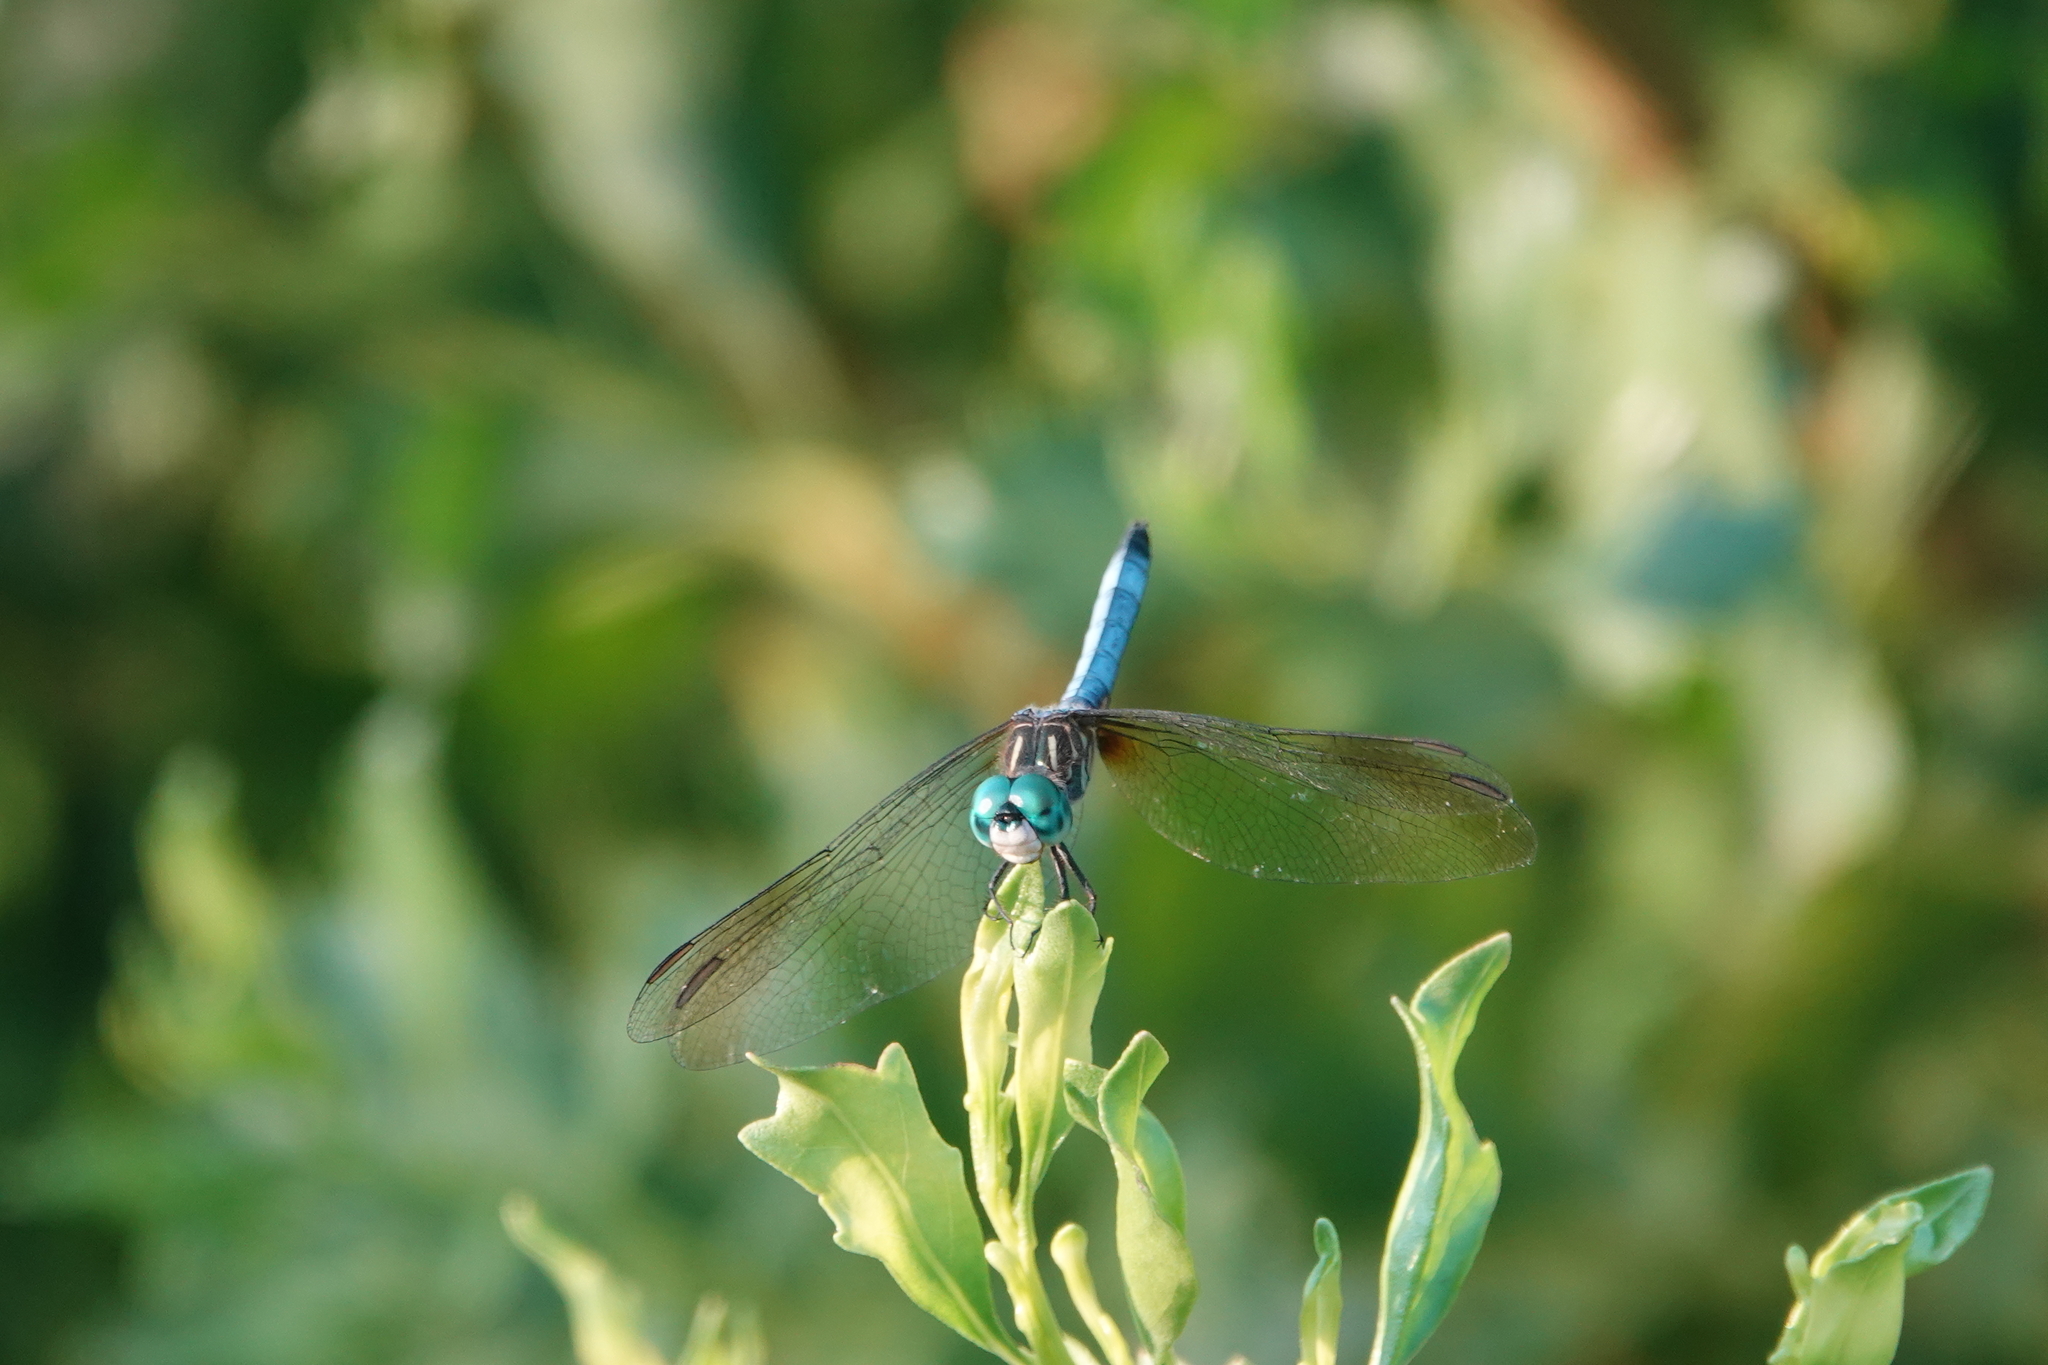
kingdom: Animalia
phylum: Arthropoda
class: Insecta
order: Odonata
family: Libellulidae
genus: Pachydiplax
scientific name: Pachydiplax longipennis
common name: Blue dasher
